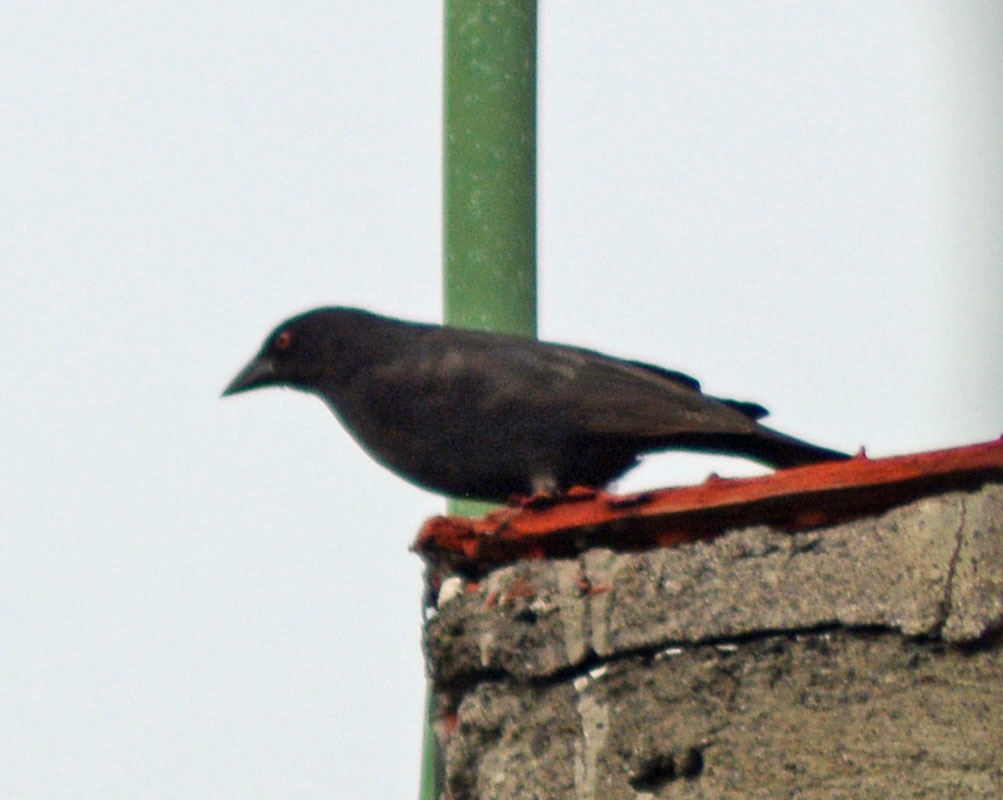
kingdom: Animalia
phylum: Chordata
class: Aves
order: Passeriformes
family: Icteridae
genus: Molothrus
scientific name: Molothrus aeneus
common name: Bronzed cowbird
